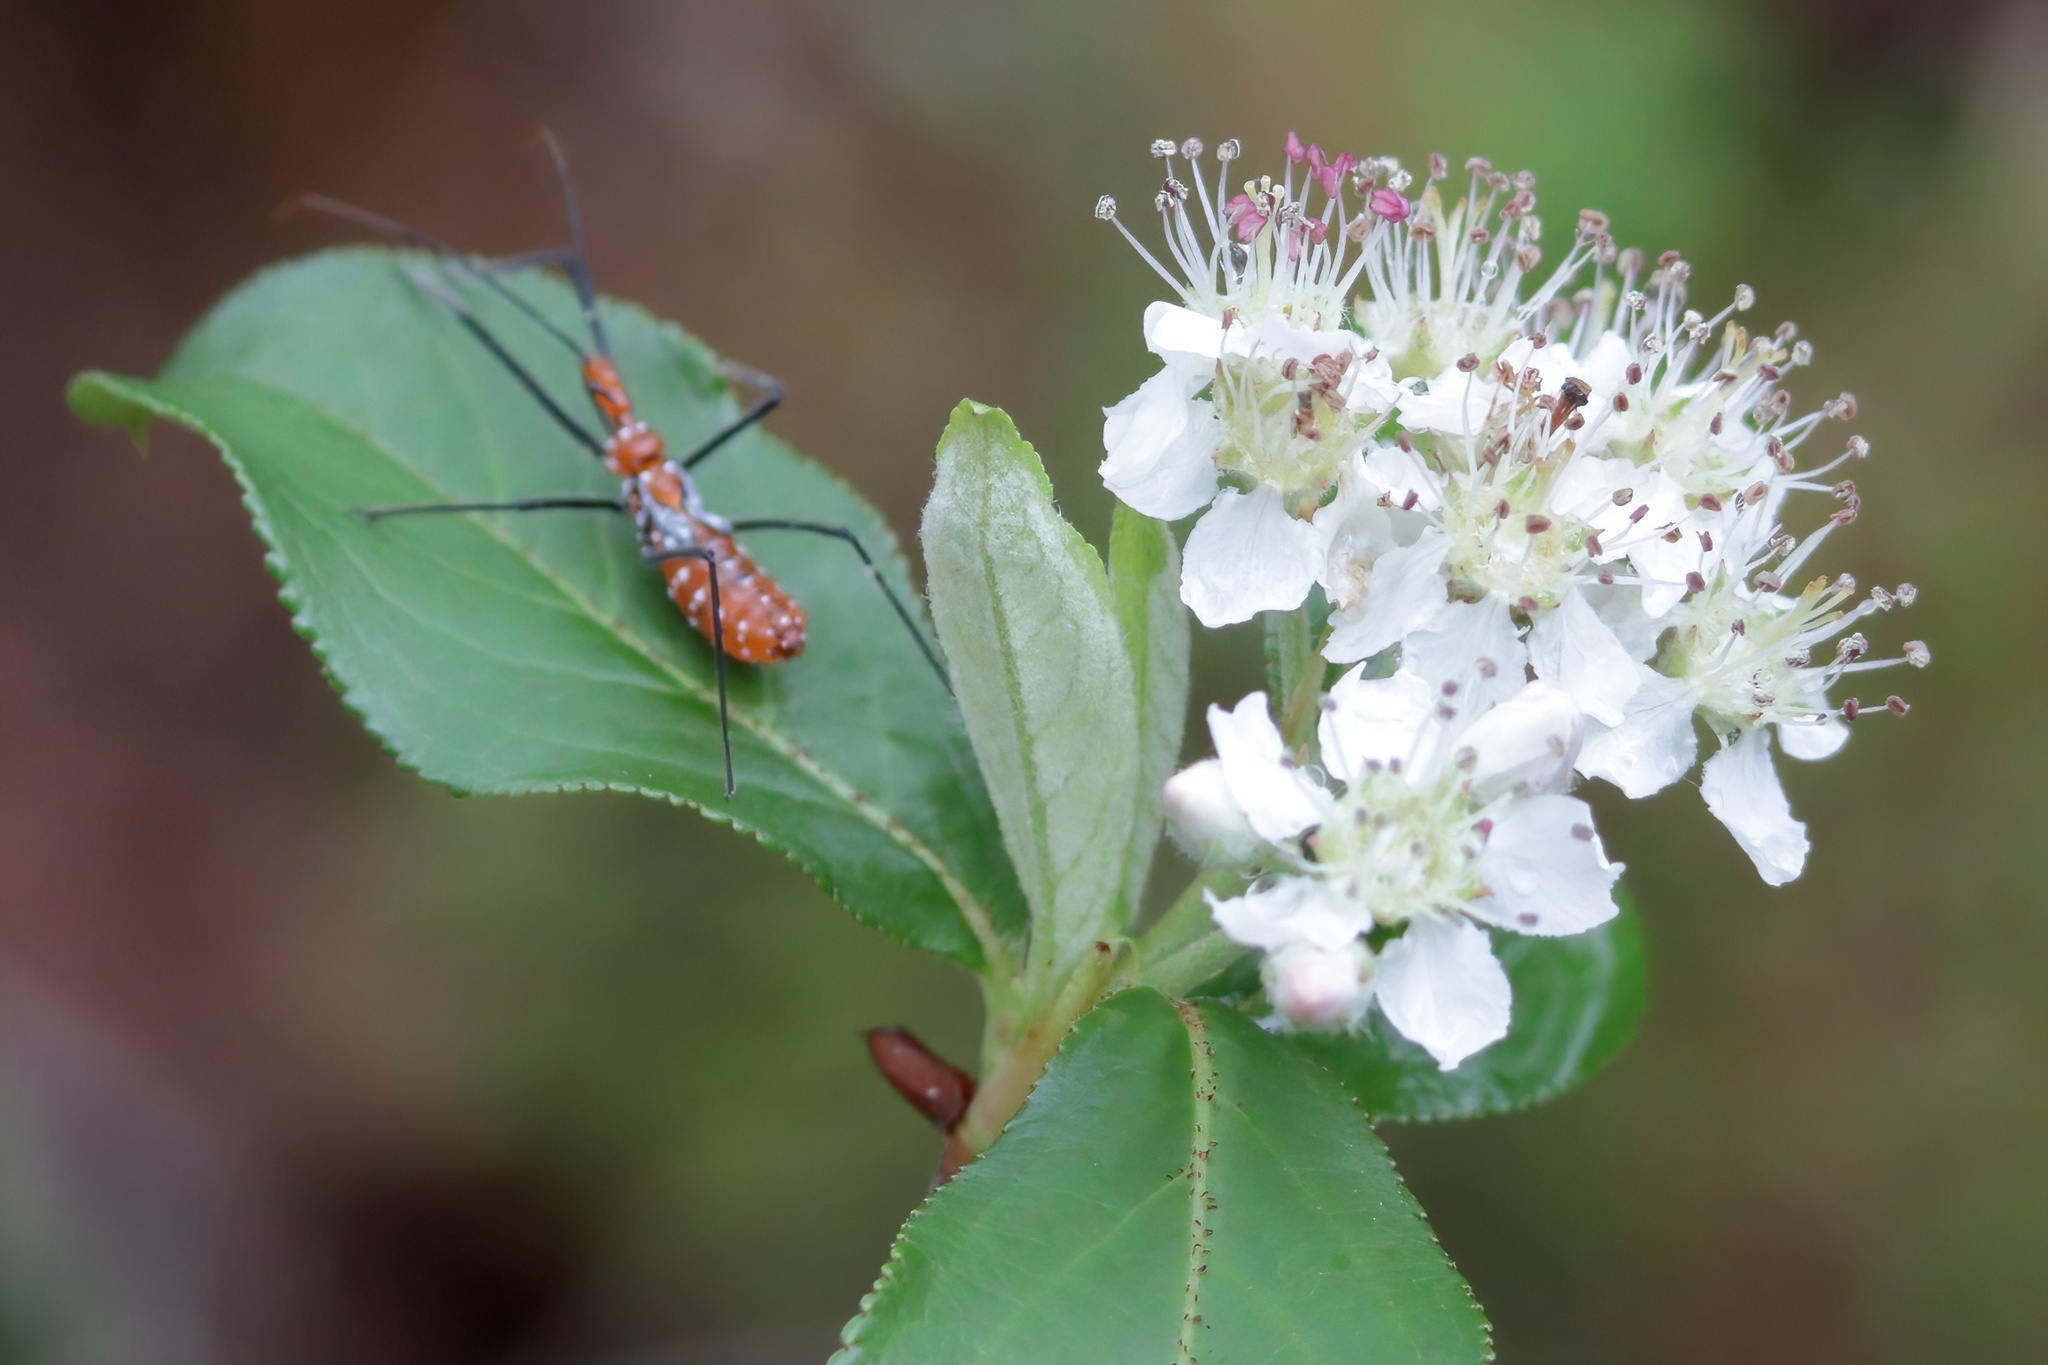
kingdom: Plantae
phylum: Tracheophyta
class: Magnoliopsida
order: Rosales
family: Rosaceae
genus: Aronia
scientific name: Aronia arbutifolia
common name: Red chokeberry
